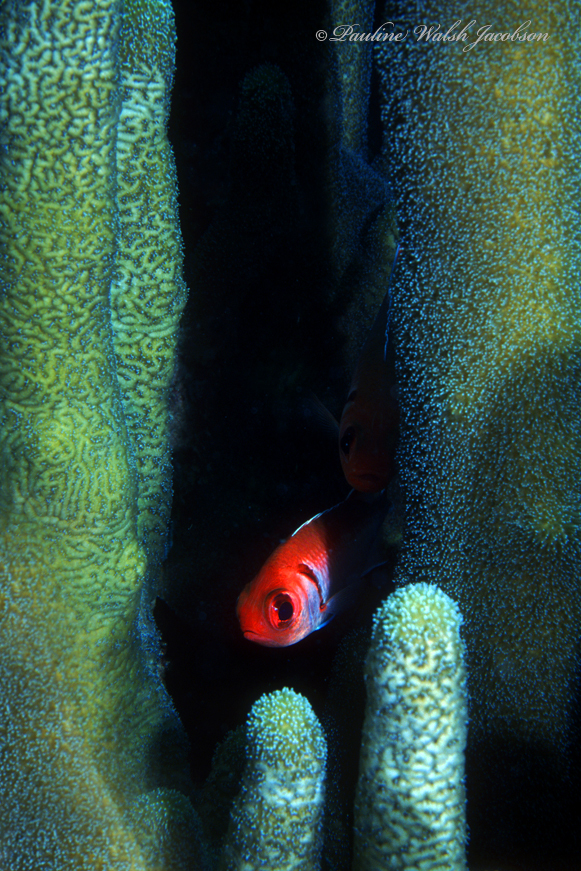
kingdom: Animalia
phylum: Chordata
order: Beryciformes
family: Holocentridae
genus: Myripristis
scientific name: Myripristis jacobus
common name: Blackbar soldierfish
